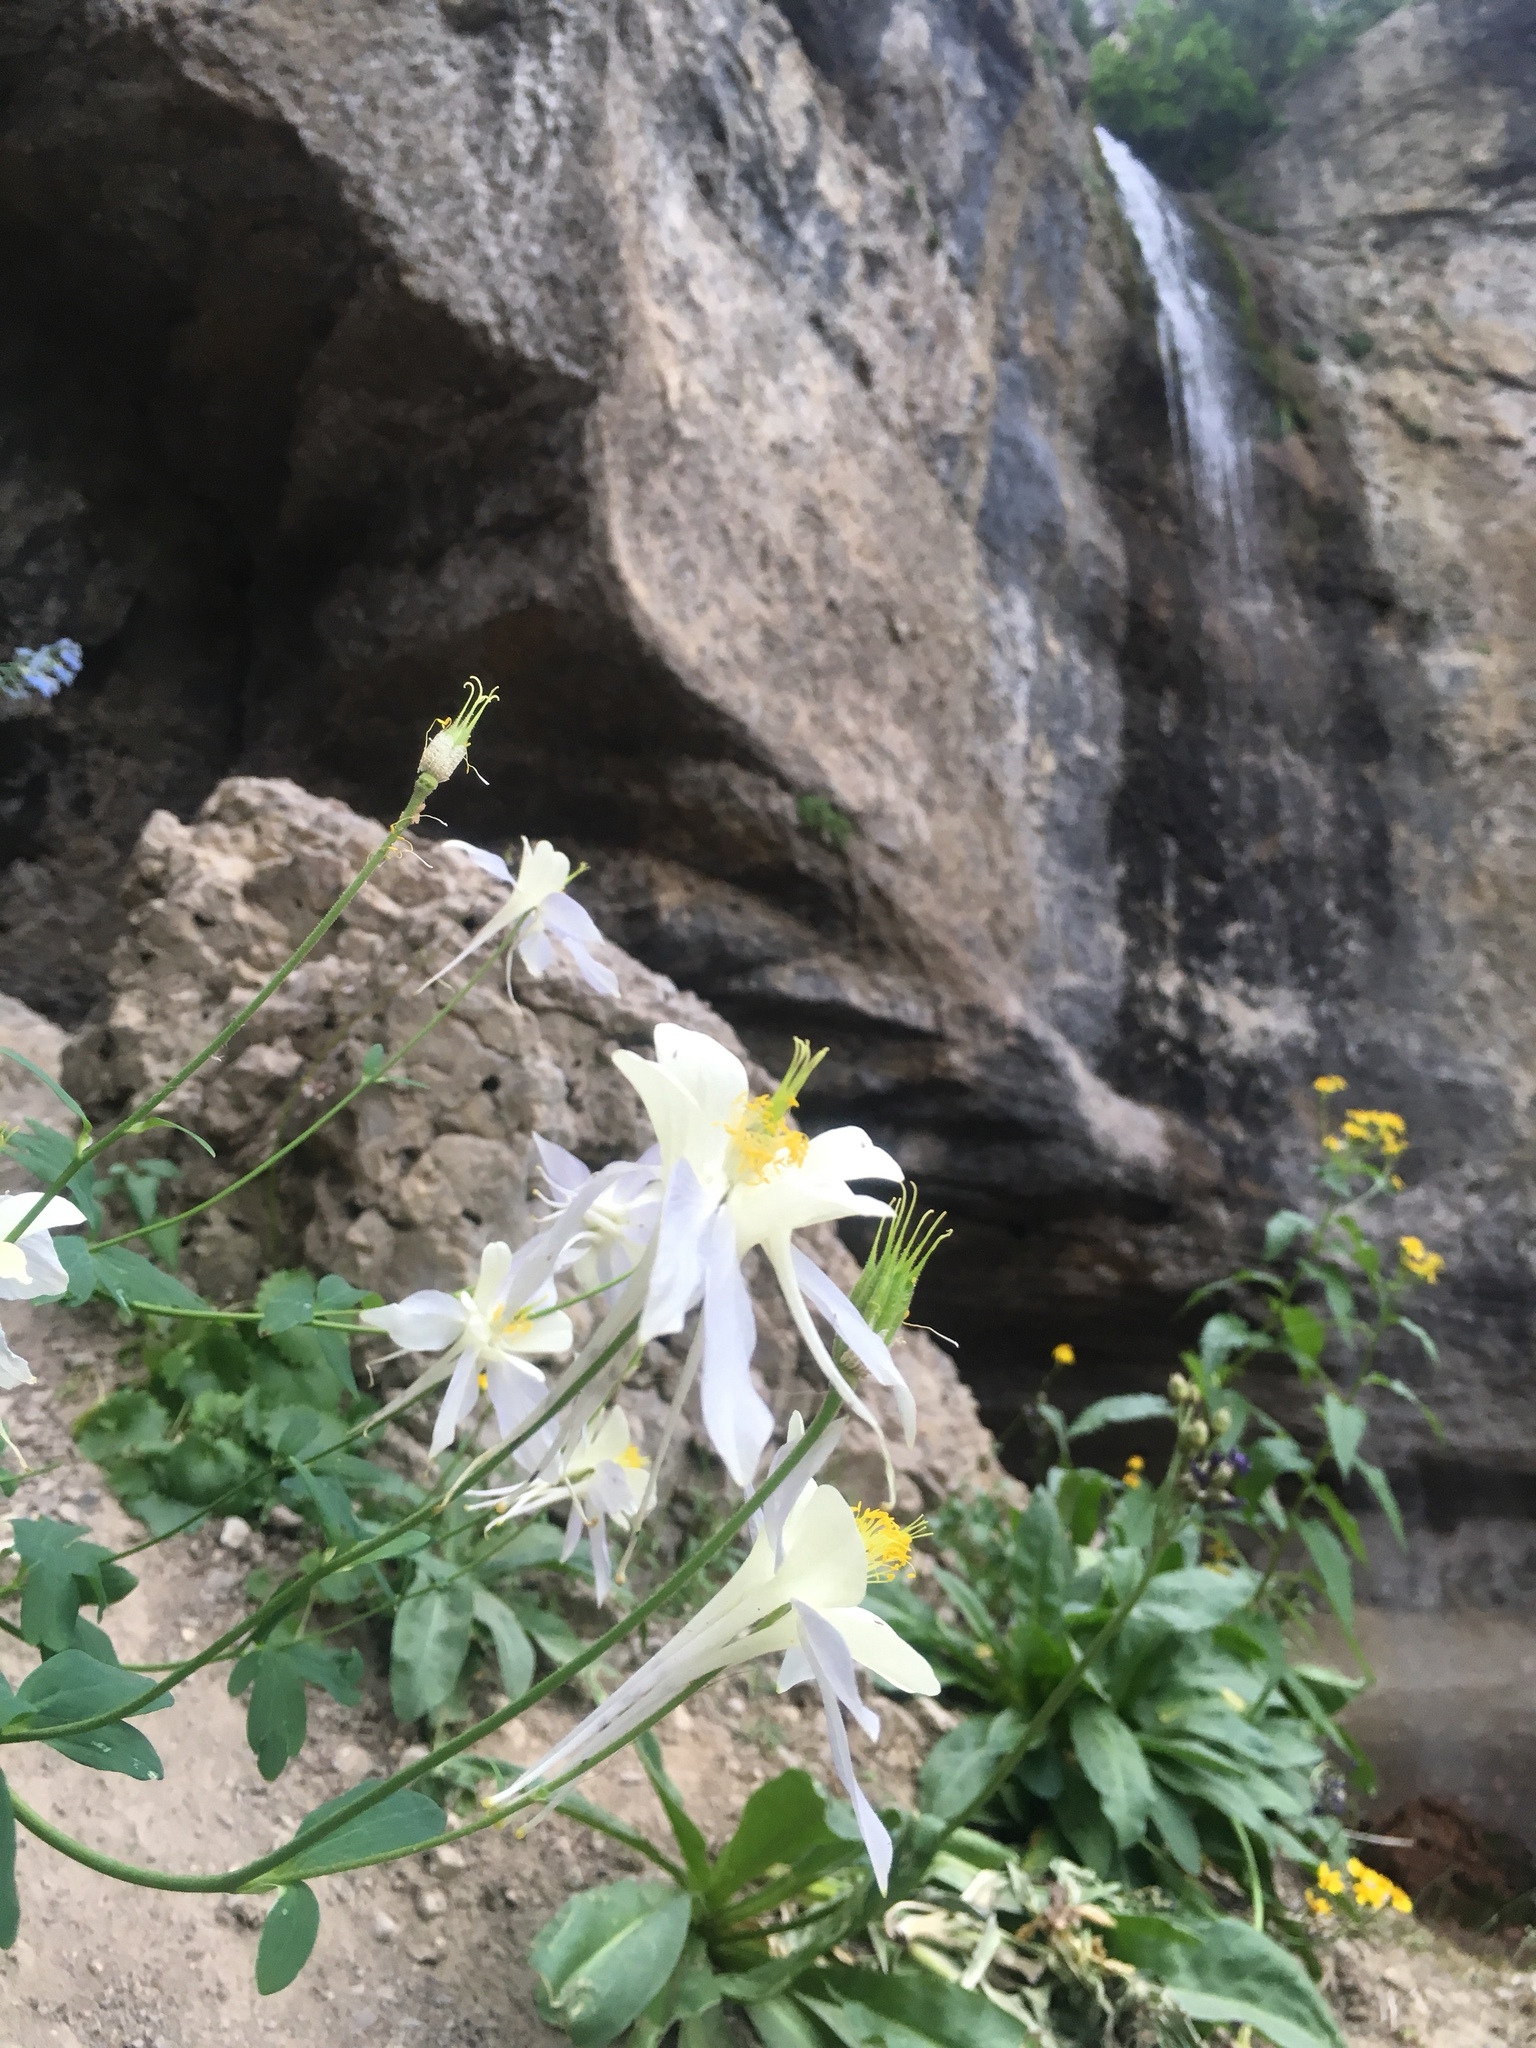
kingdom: Plantae
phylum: Tracheophyta
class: Magnoliopsida
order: Ranunculales
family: Ranunculaceae
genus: Aquilegia
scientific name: Aquilegia coerulea
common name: Rocky mountain columbine
